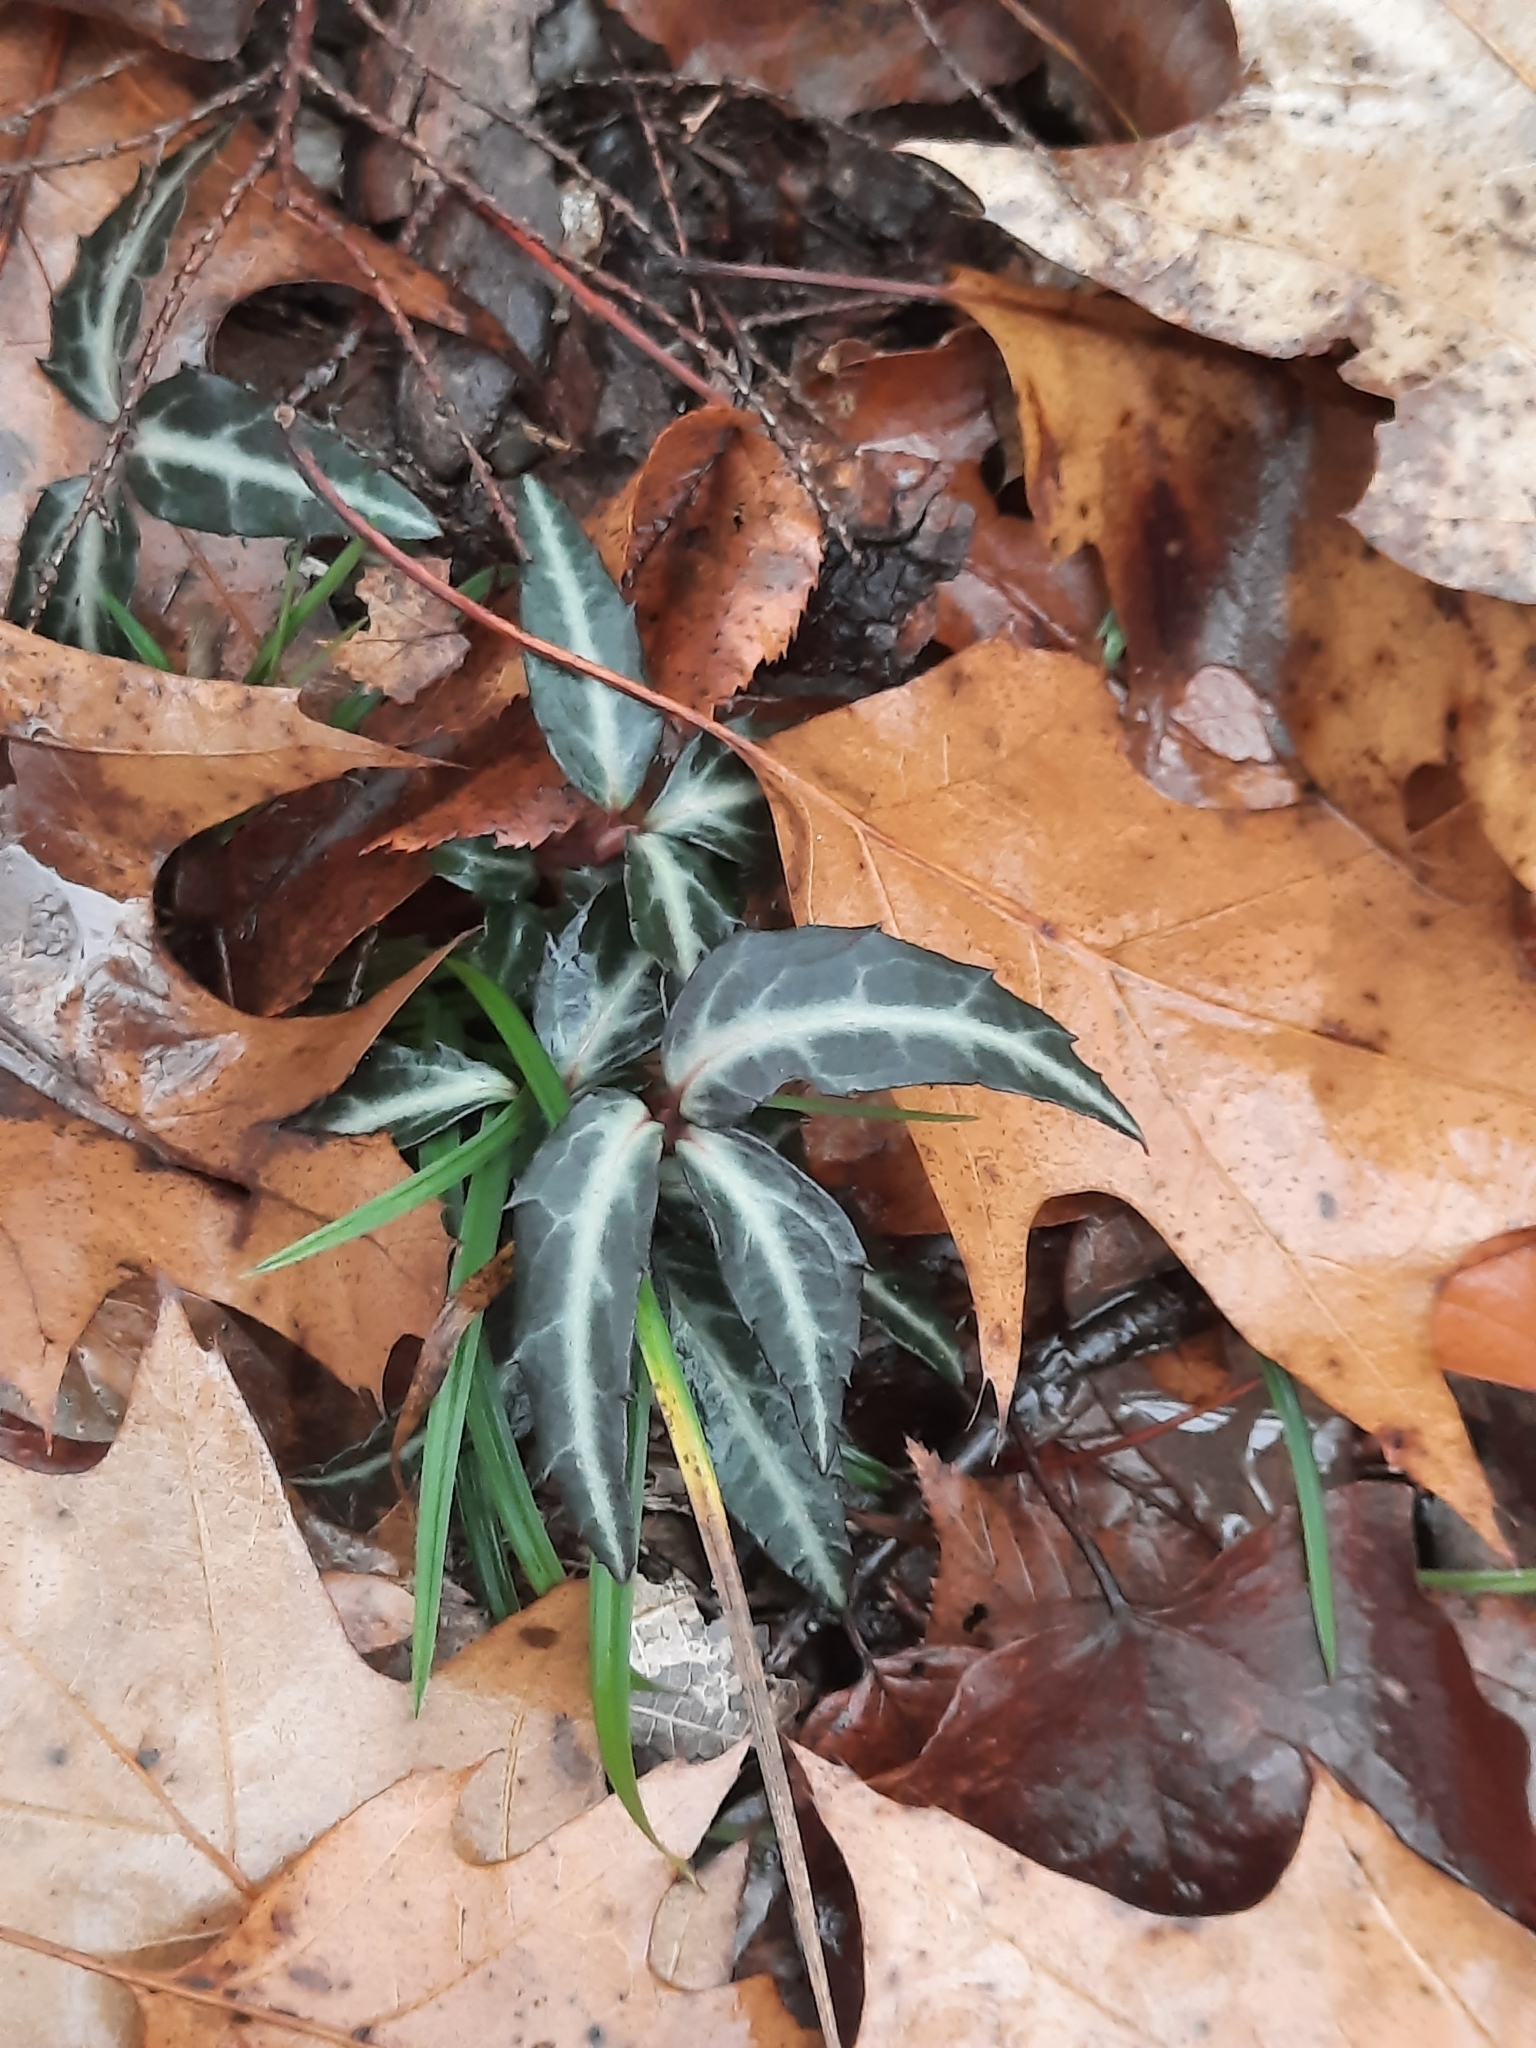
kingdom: Plantae
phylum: Tracheophyta
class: Magnoliopsida
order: Ericales
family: Ericaceae
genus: Chimaphila
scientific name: Chimaphila maculata
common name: Spotted pipsissewa
